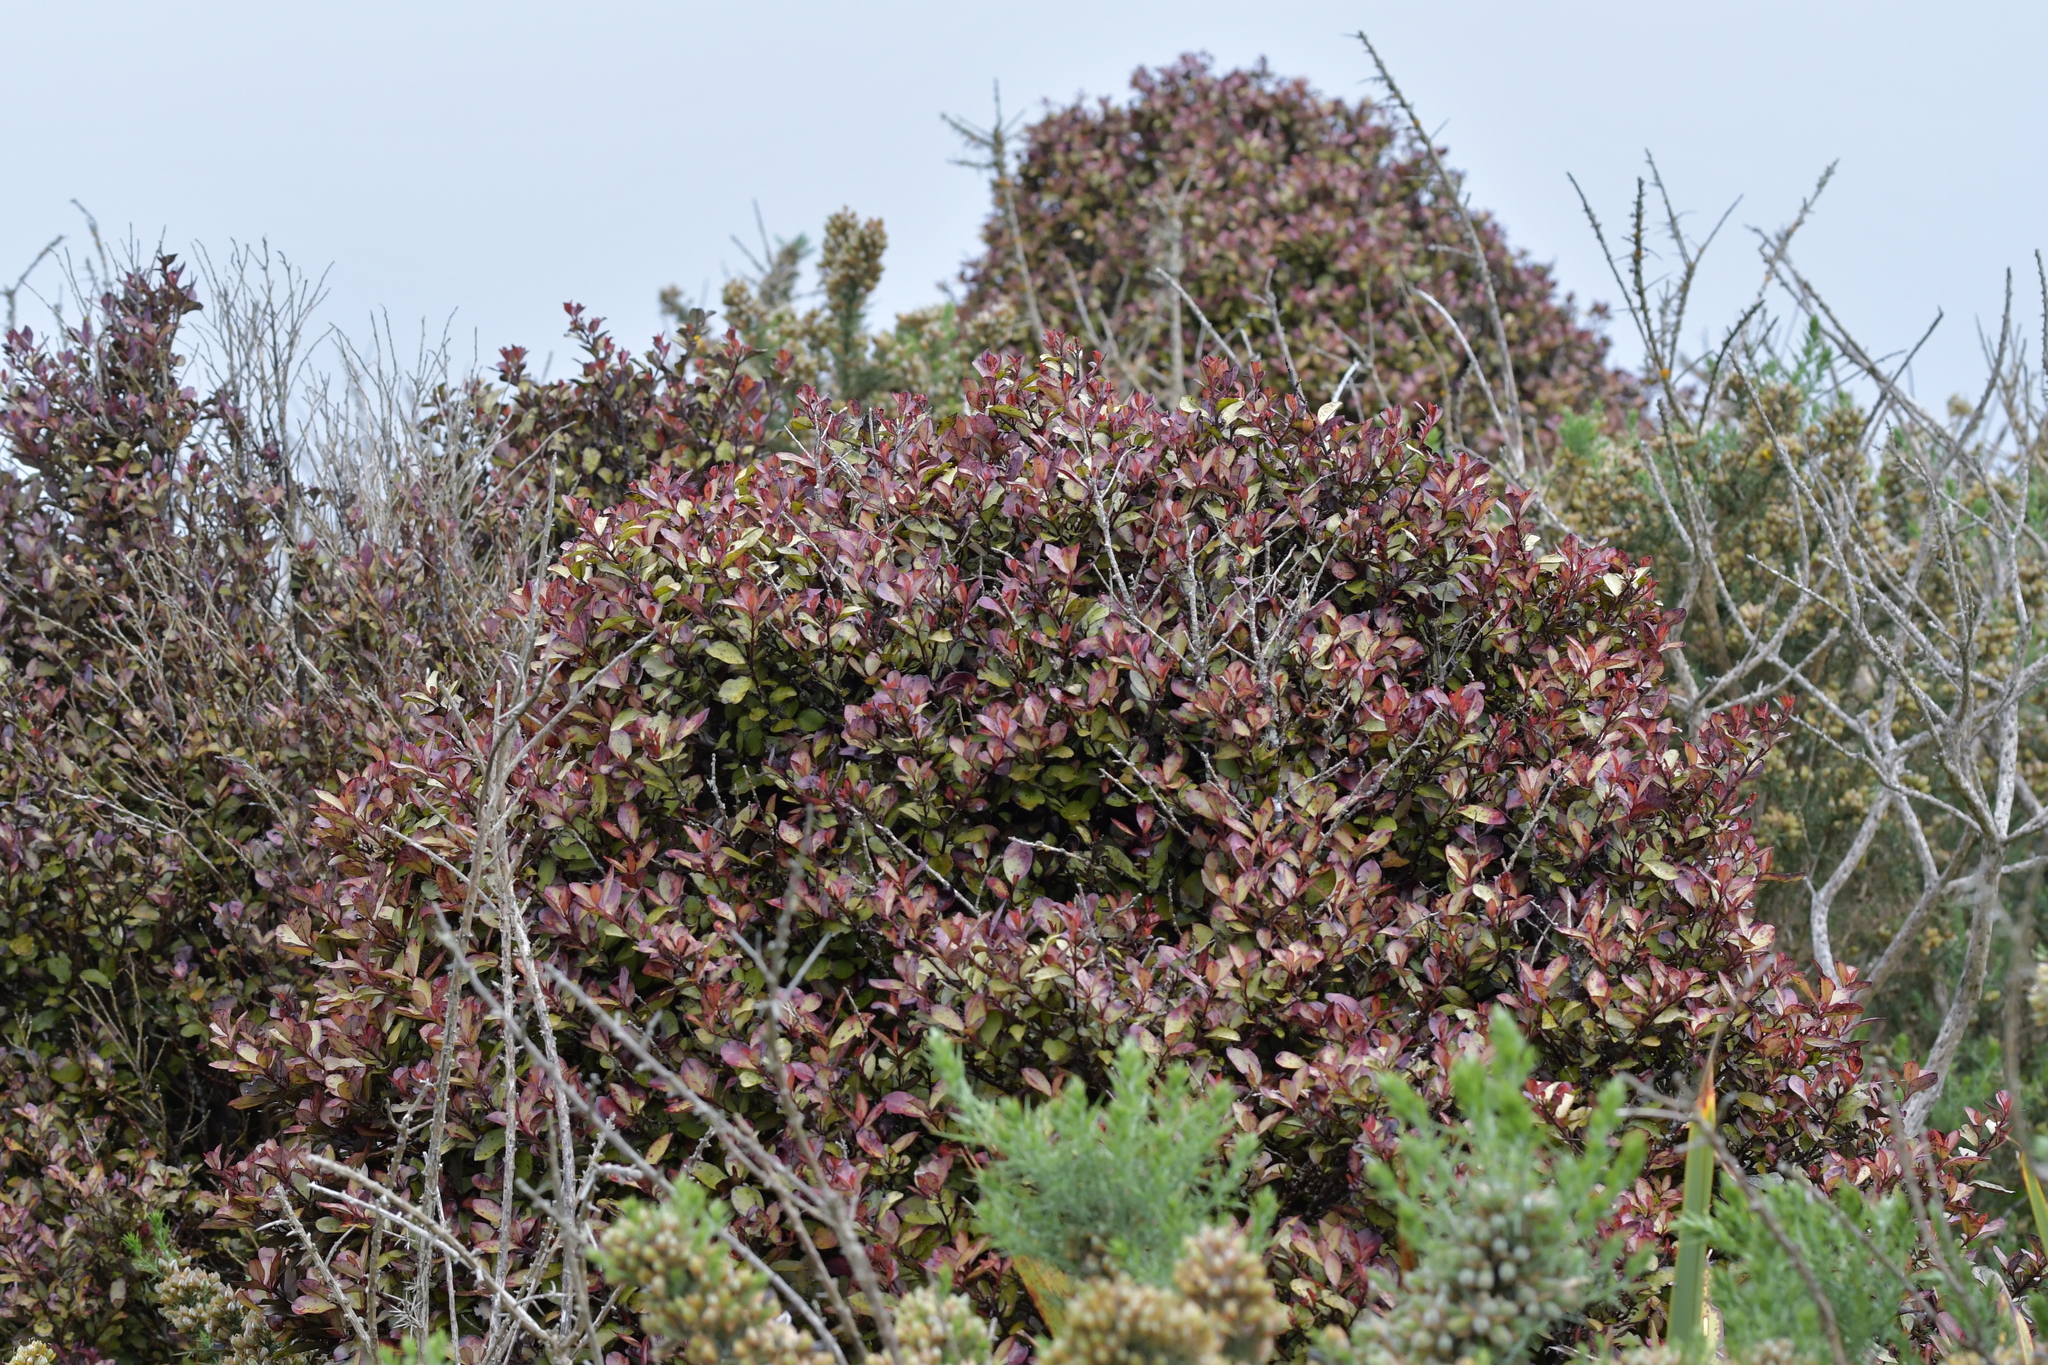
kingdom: Plantae
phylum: Tracheophyta
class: Magnoliopsida
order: Canellales
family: Winteraceae
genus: Pseudowintera
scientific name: Pseudowintera colorata
